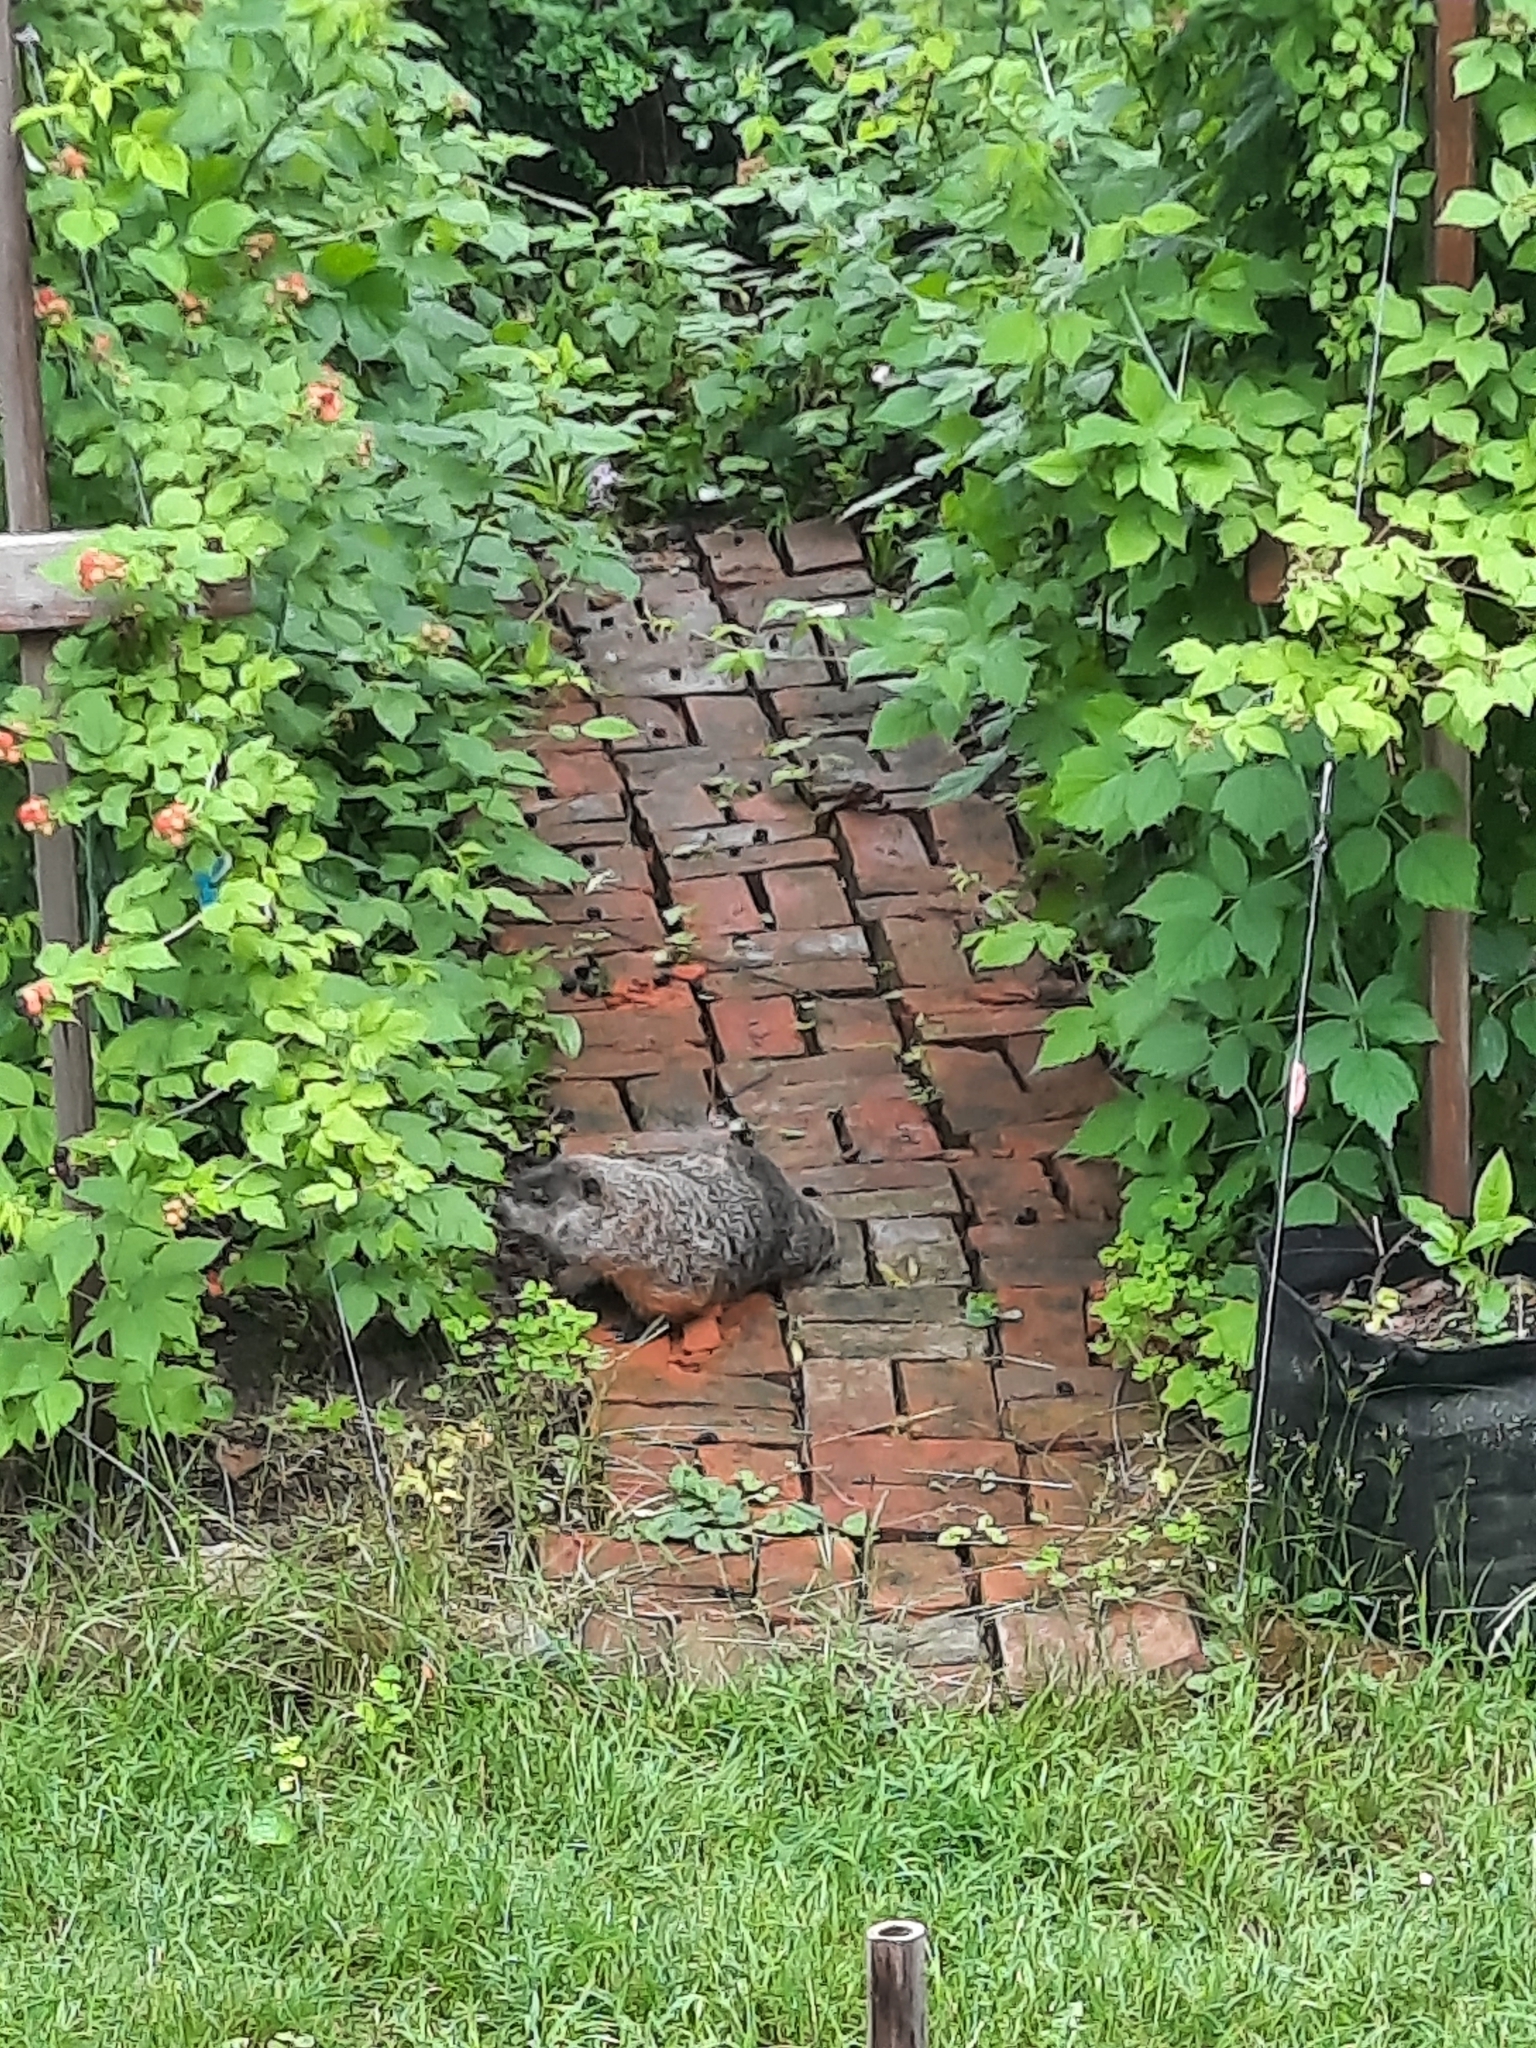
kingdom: Animalia
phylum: Chordata
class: Mammalia
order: Rodentia
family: Sciuridae
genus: Marmota
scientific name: Marmota monax
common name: Groundhog
